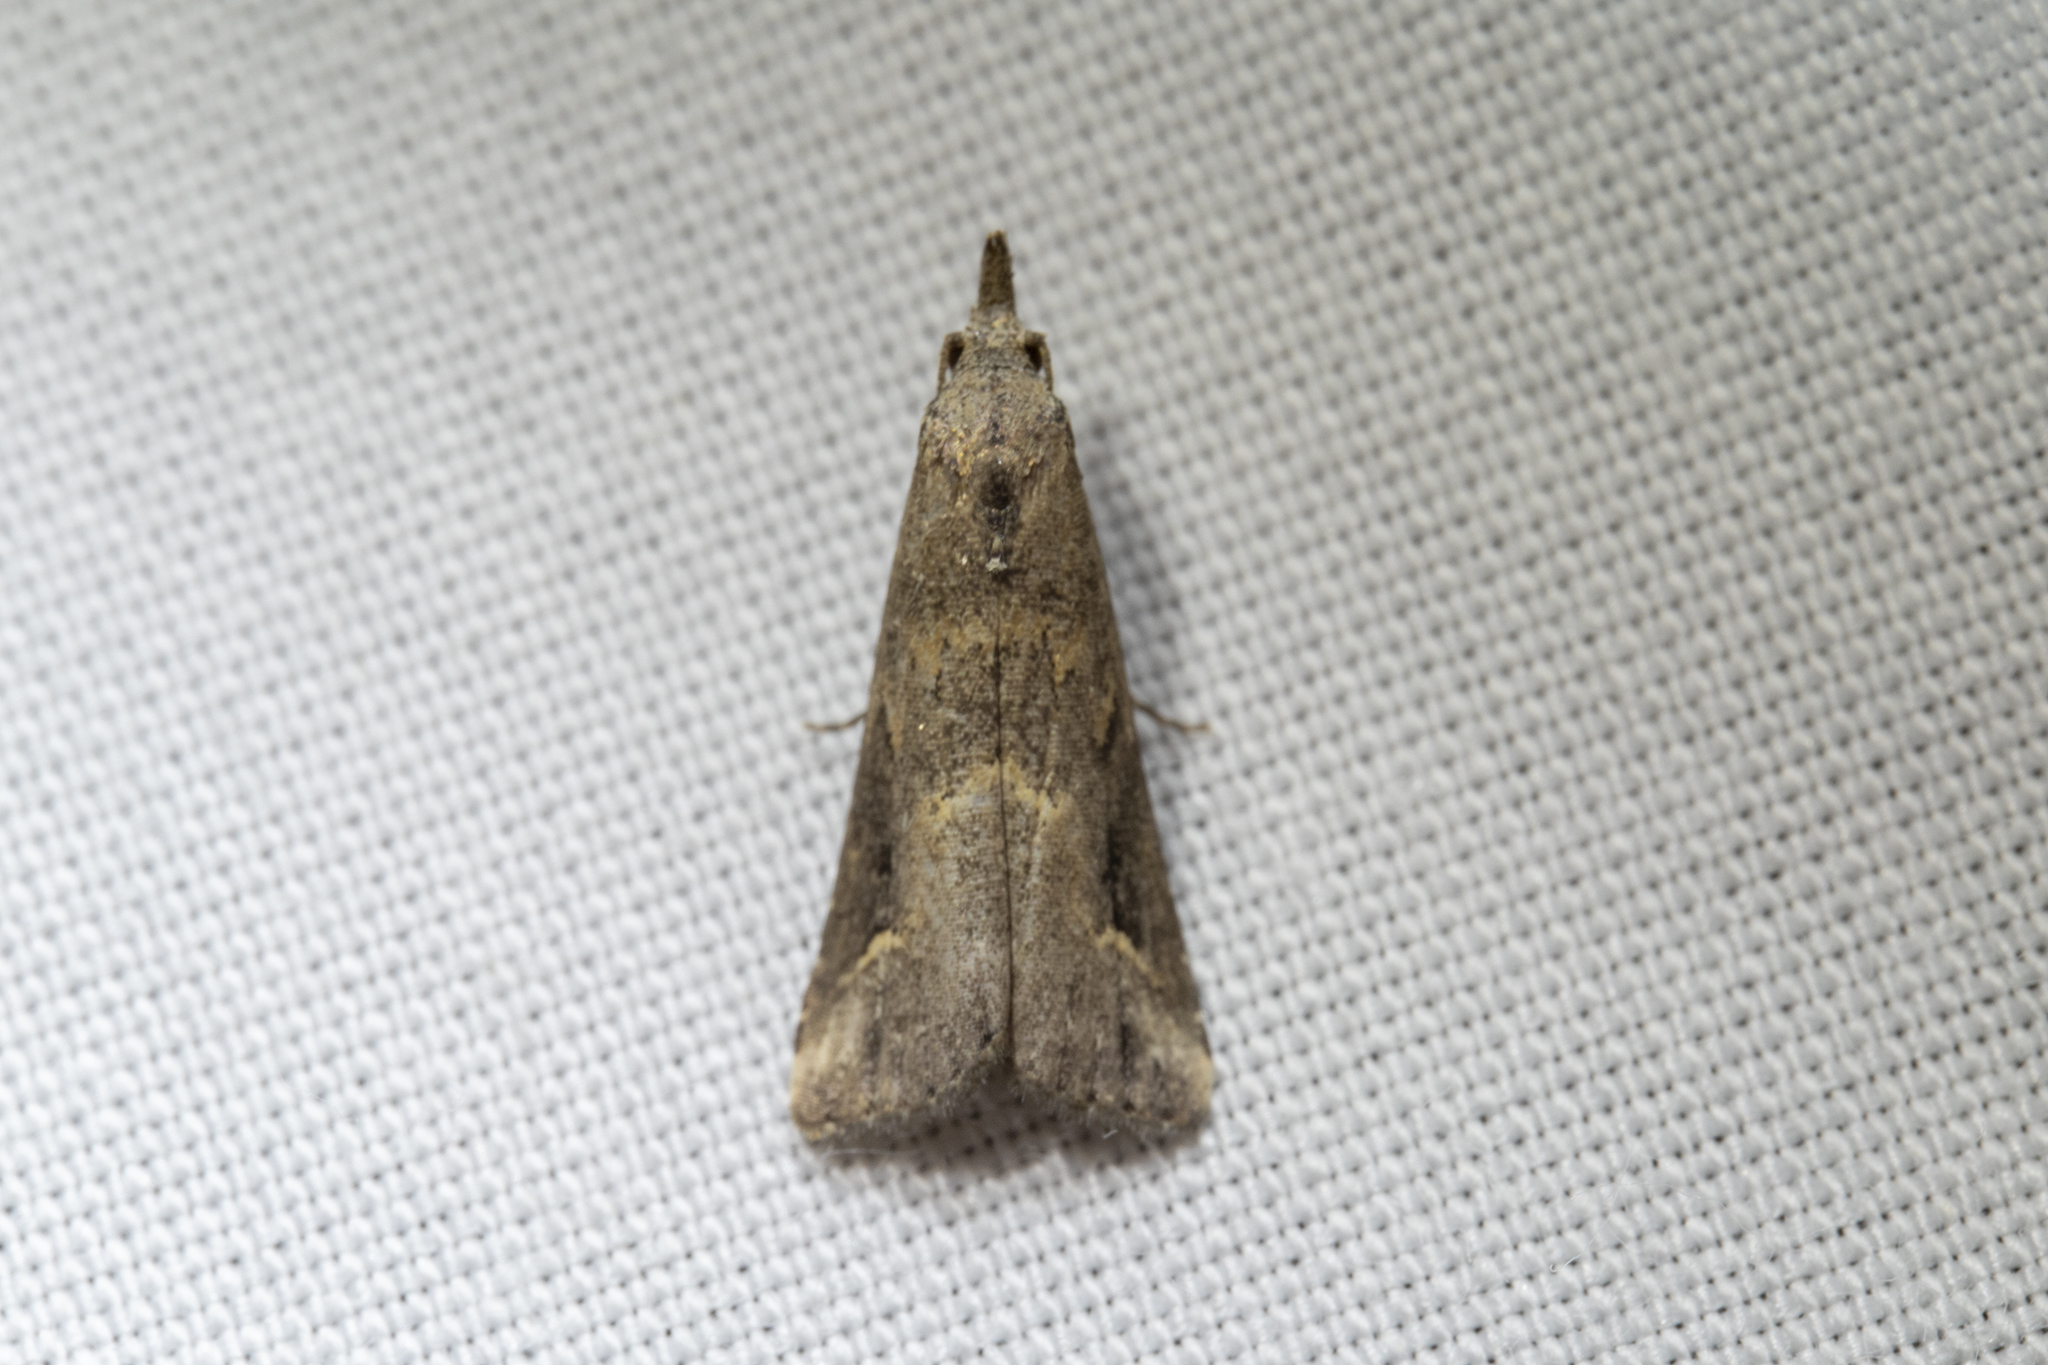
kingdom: Animalia
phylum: Arthropoda
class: Insecta
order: Lepidoptera
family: Erebidae
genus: Schrankia
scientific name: Schrankia costaestrigalis
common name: Pinion-streaked snout
